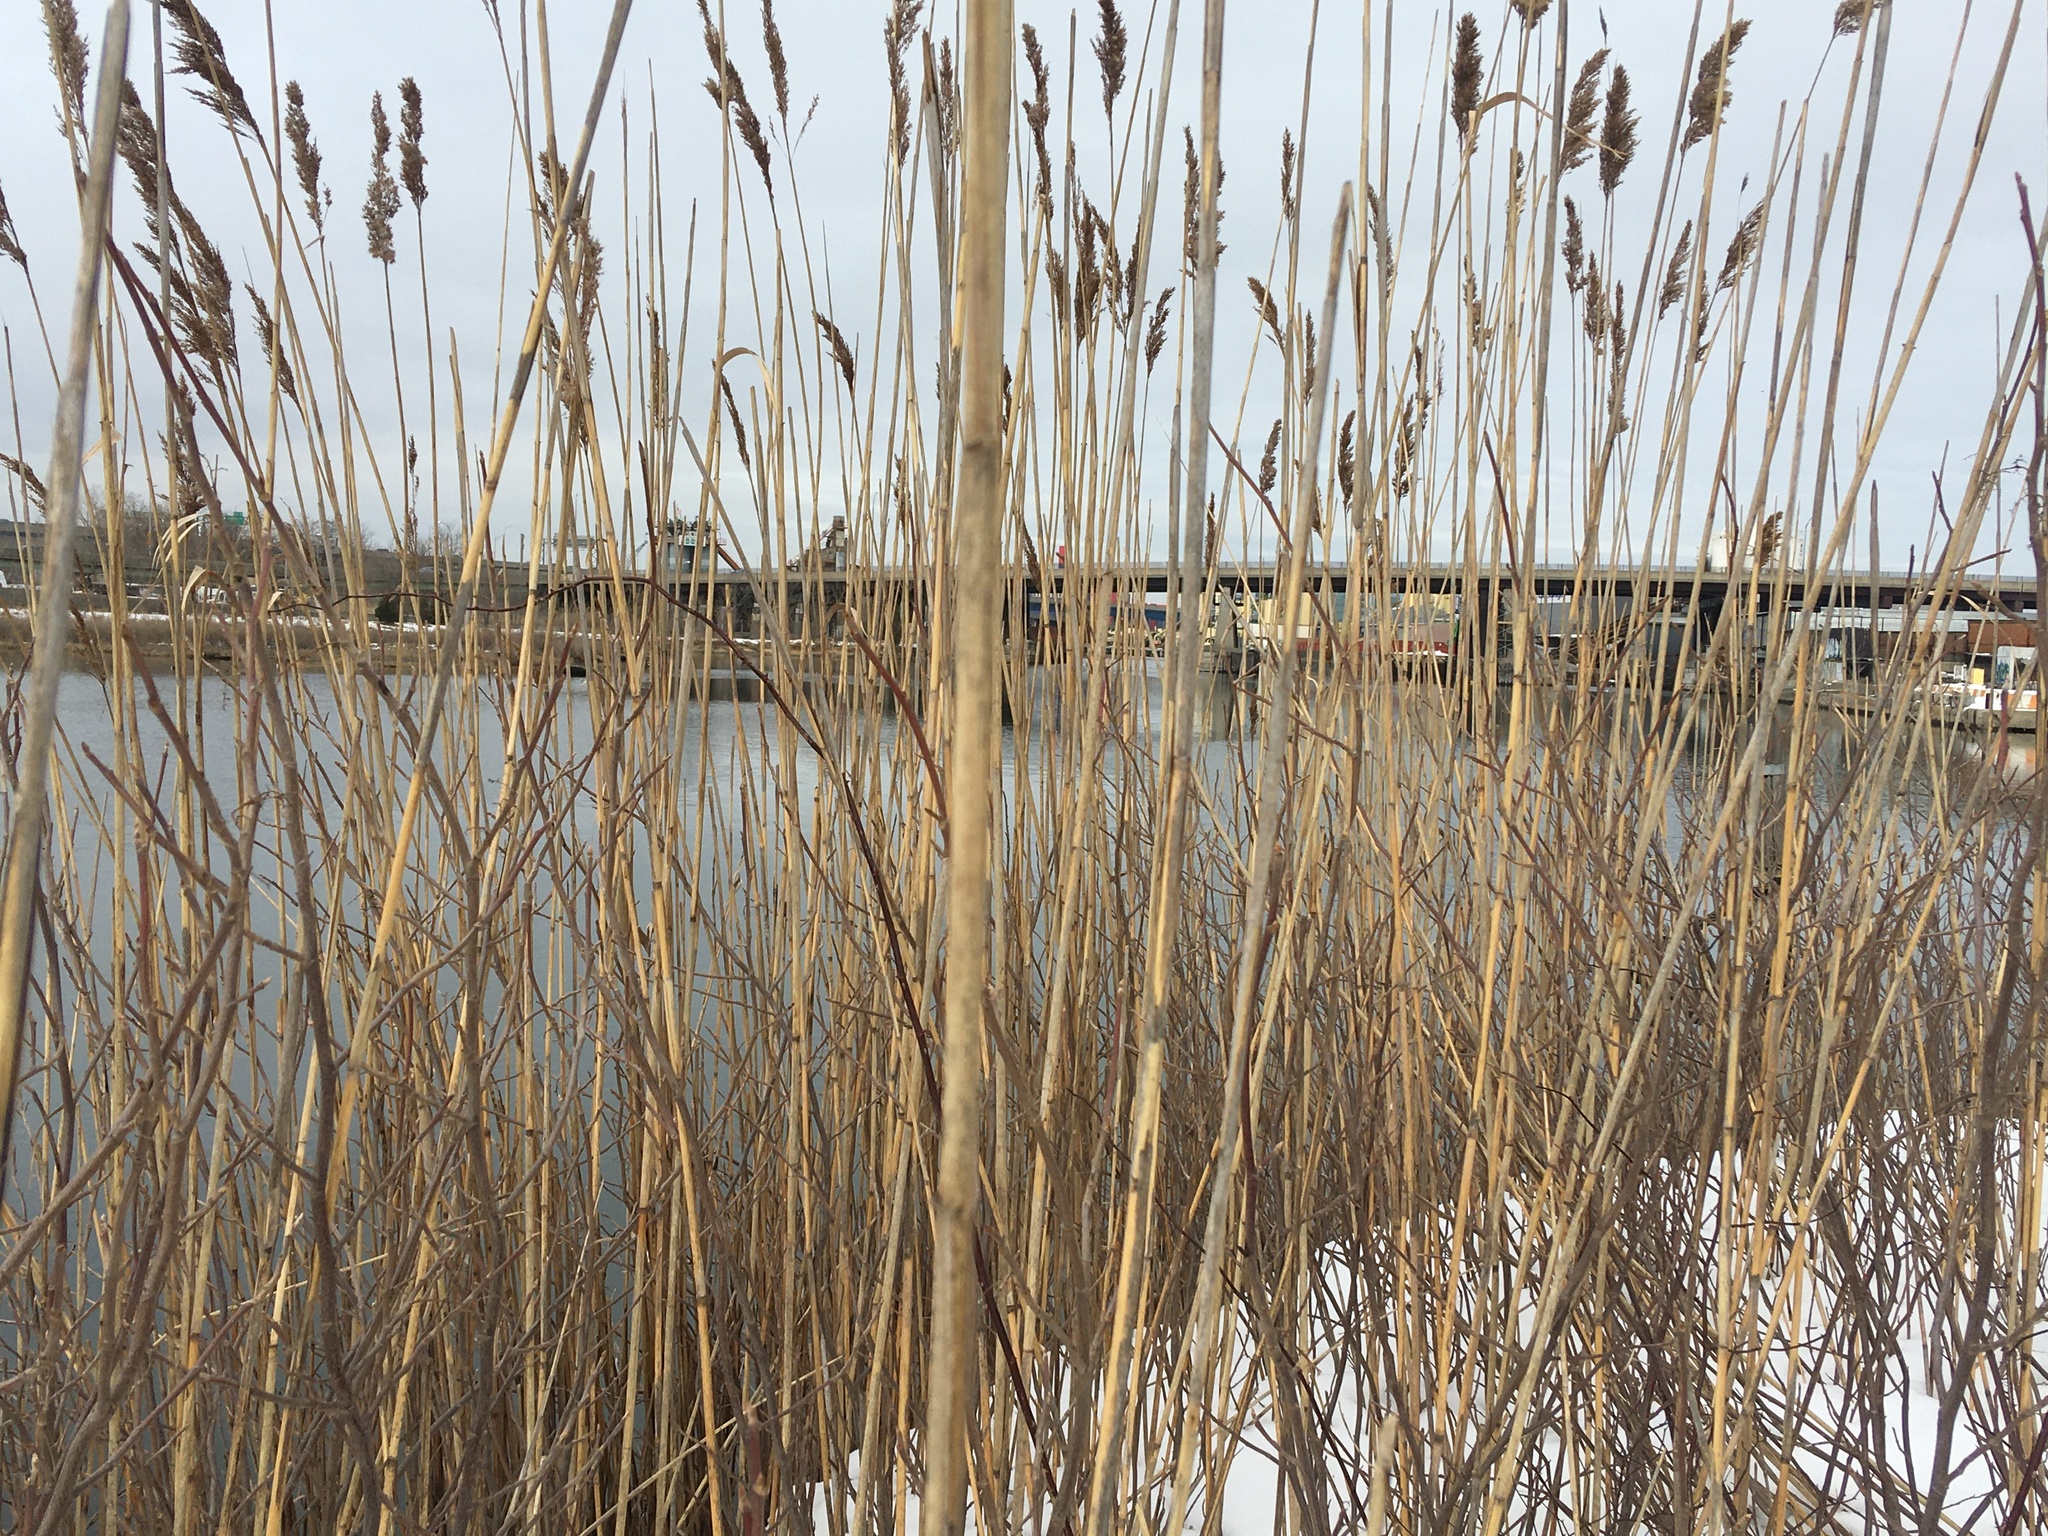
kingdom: Plantae
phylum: Tracheophyta
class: Liliopsida
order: Poales
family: Poaceae
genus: Phragmites
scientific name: Phragmites australis
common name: Common reed
